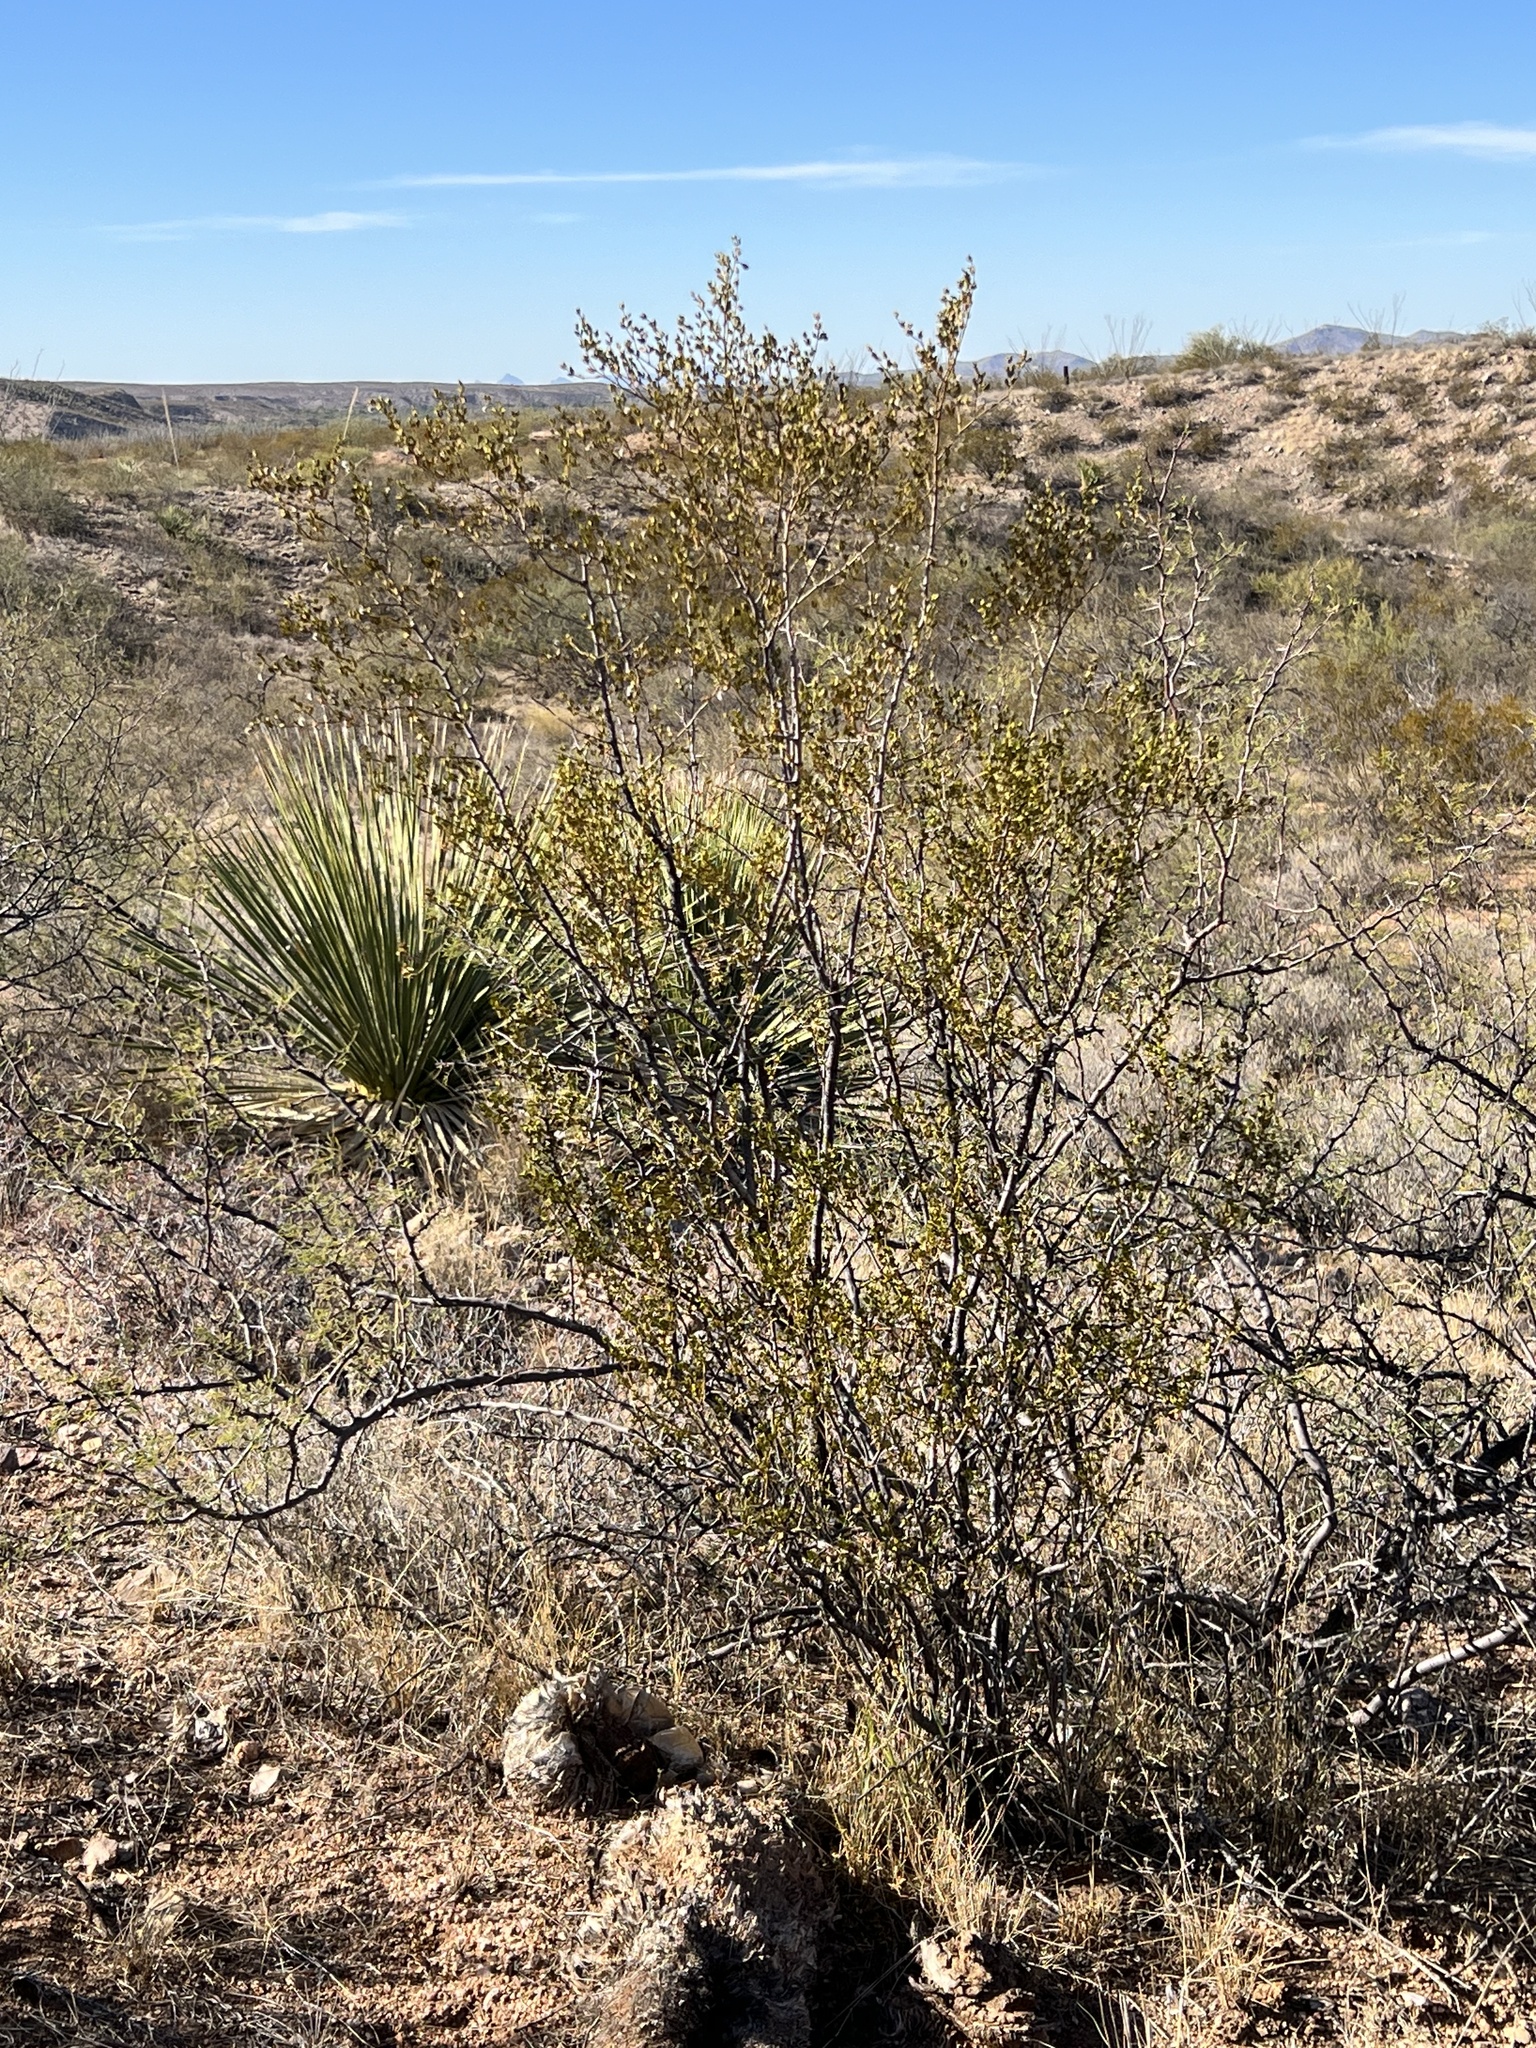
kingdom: Plantae
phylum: Tracheophyta
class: Magnoliopsida
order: Zygophyllales
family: Zygophyllaceae
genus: Larrea
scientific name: Larrea tridentata
